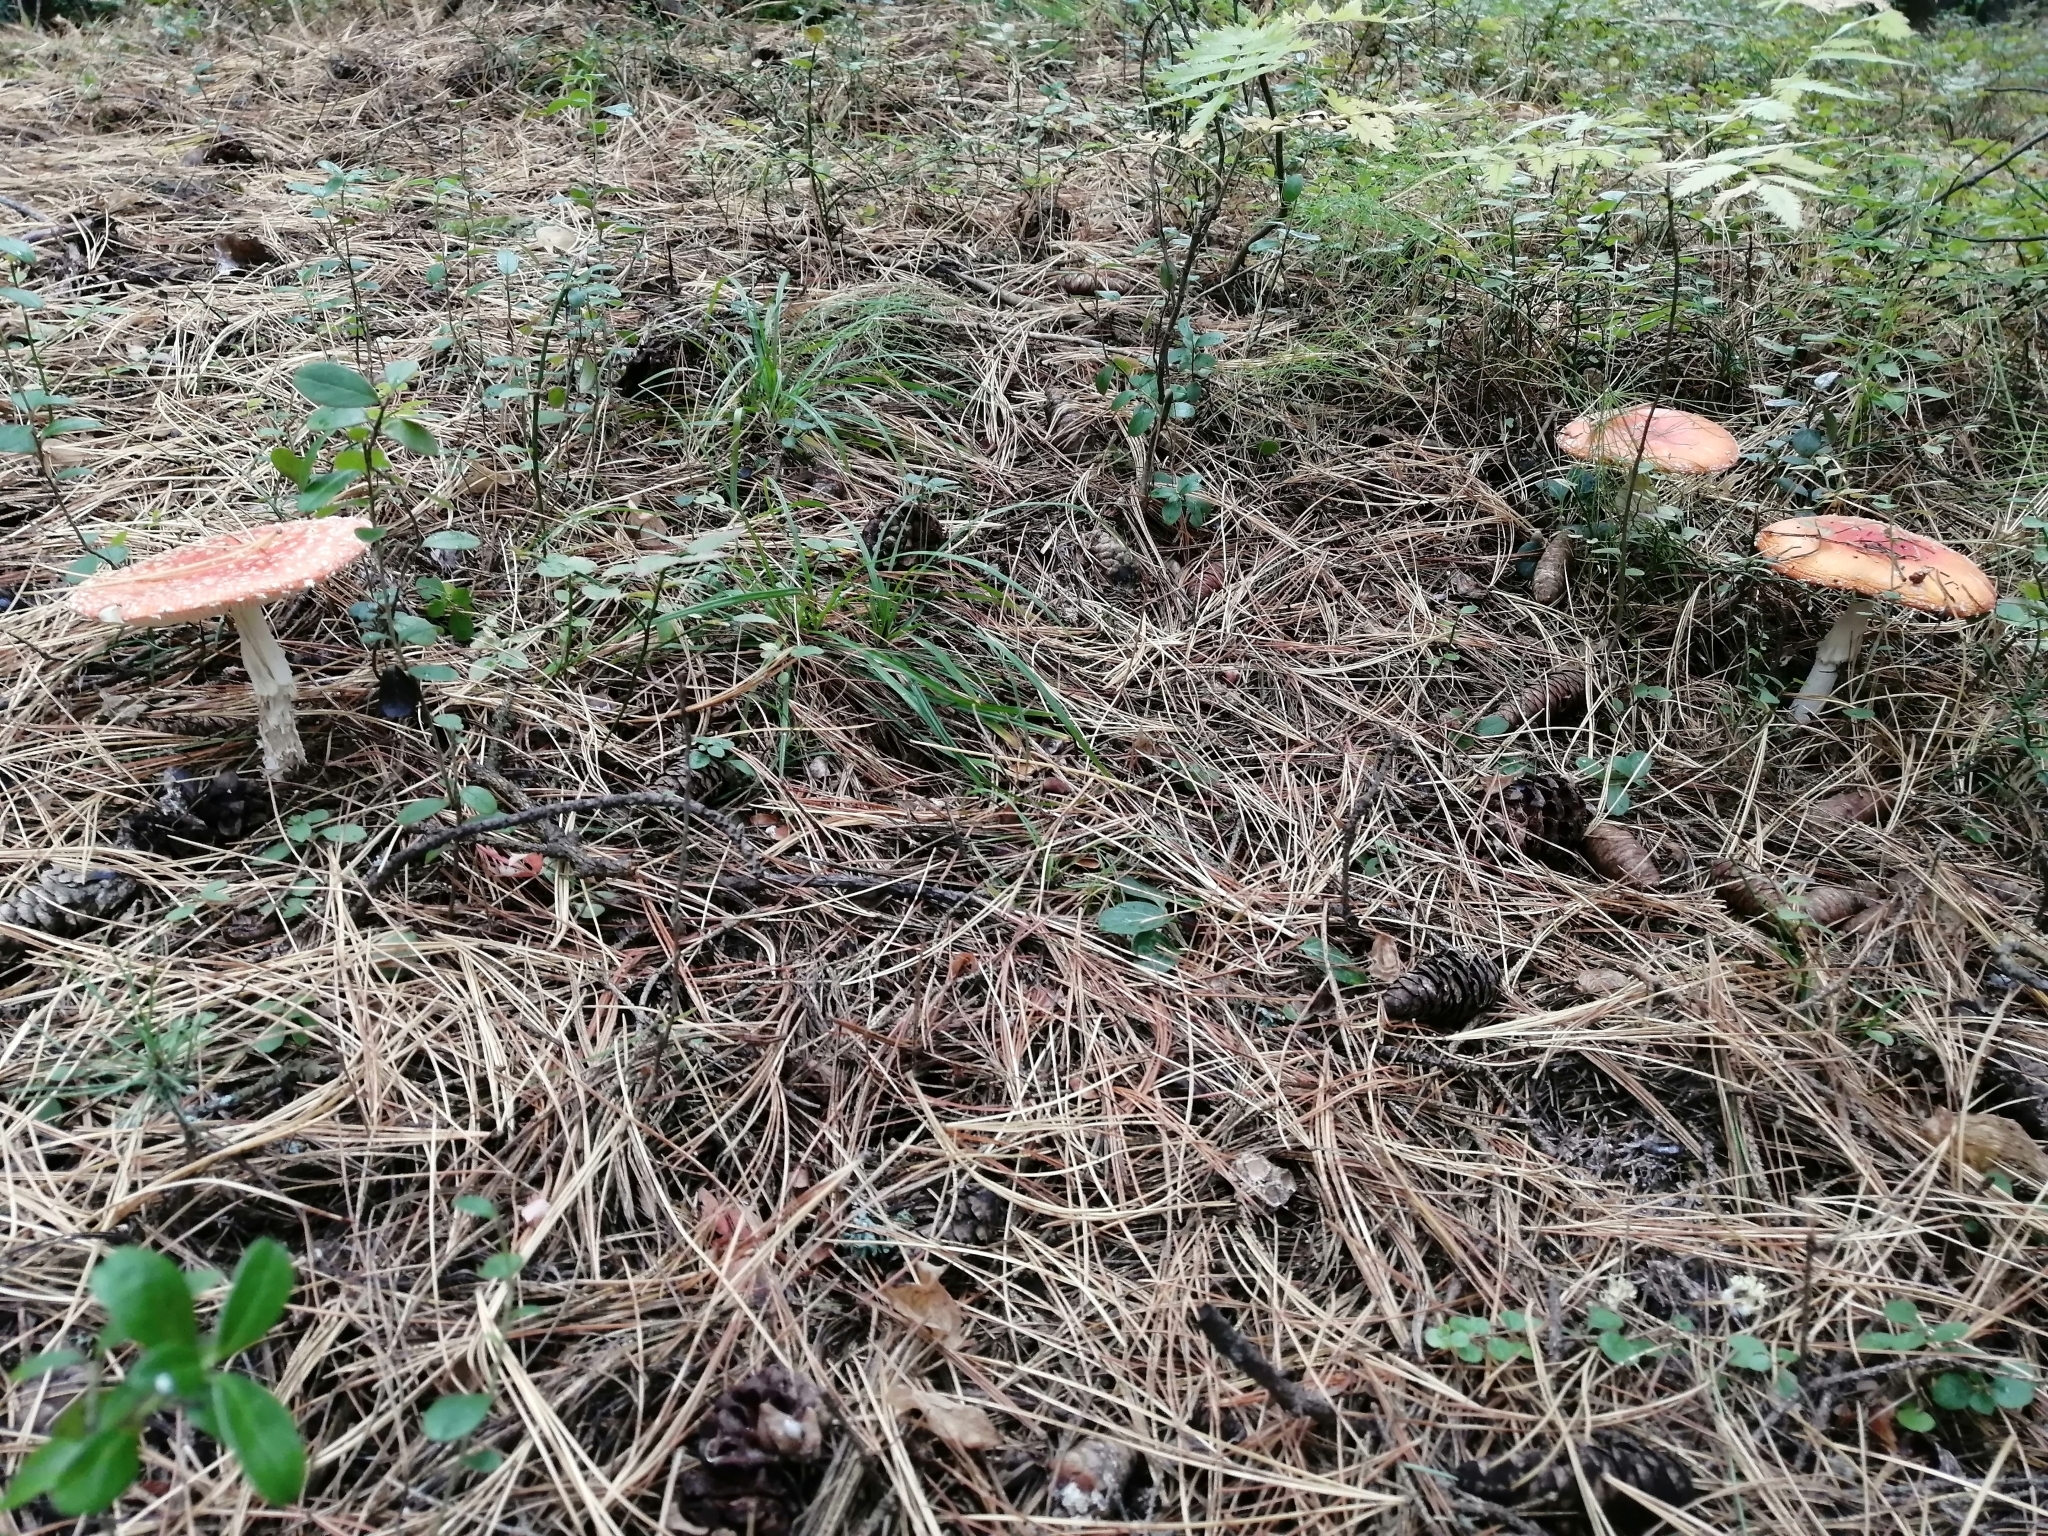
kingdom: Fungi
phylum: Basidiomycota
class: Agaricomycetes
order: Agaricales
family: Amanitaceae
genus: Amanita
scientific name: Amanita muscaria
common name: Fly agaric
